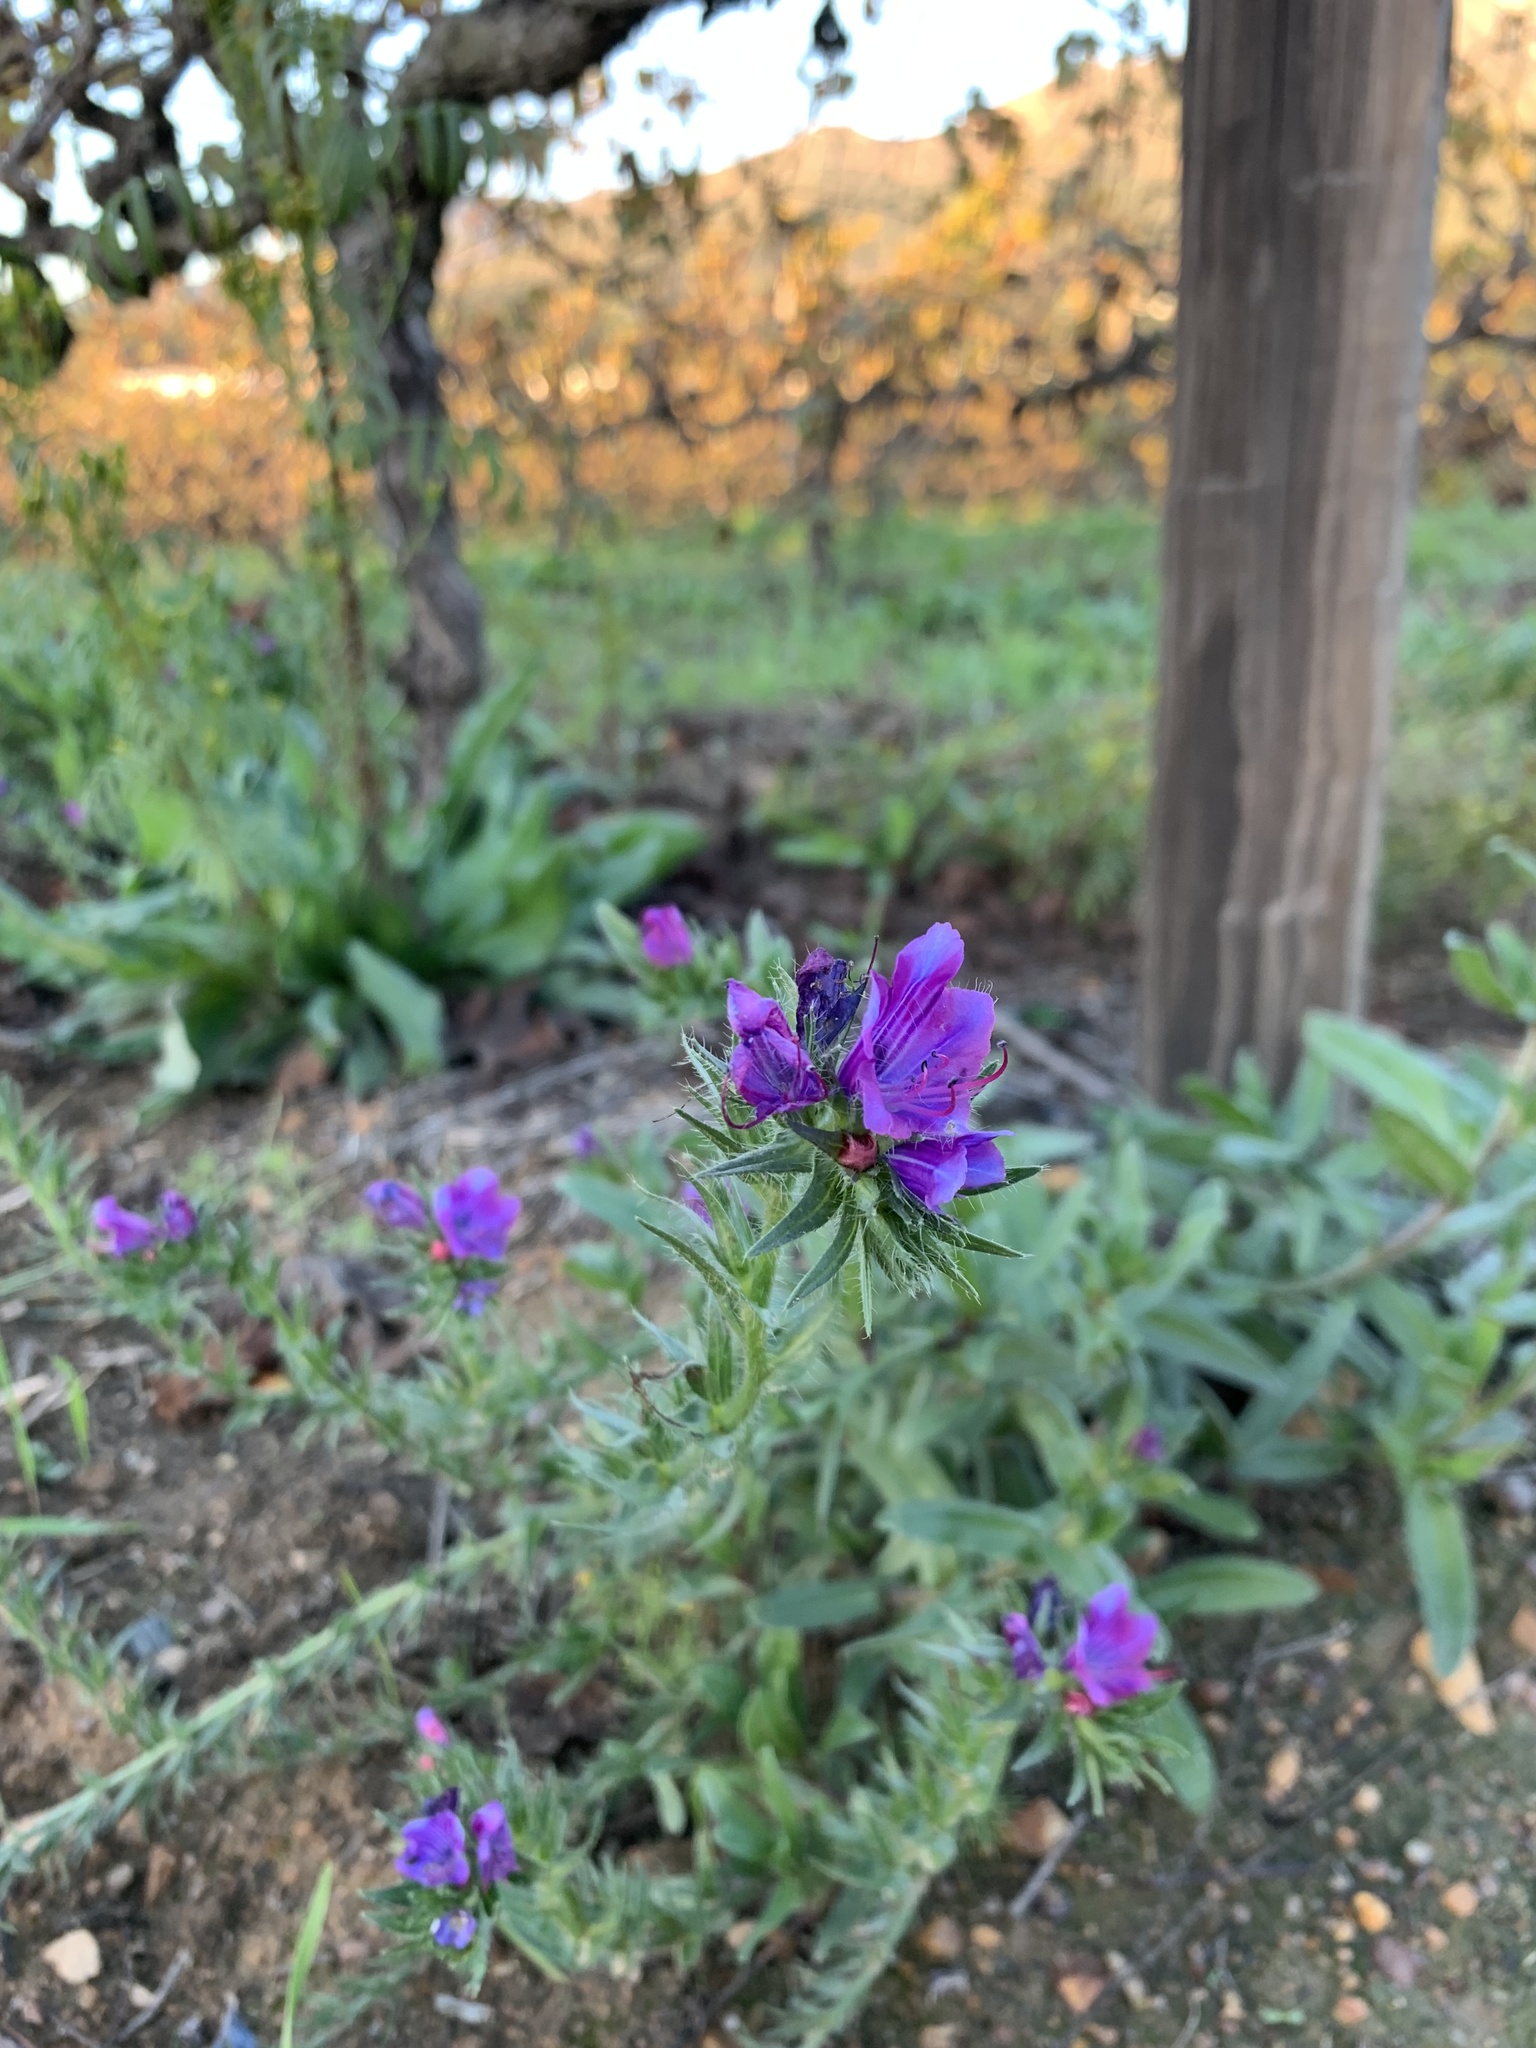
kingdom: Plantae
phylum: Tracheophyta
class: Magnoliopsida
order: Boraginales
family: Boraginaceae
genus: Echium
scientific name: Echium plantagineum
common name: Purple viper's-bugloss
